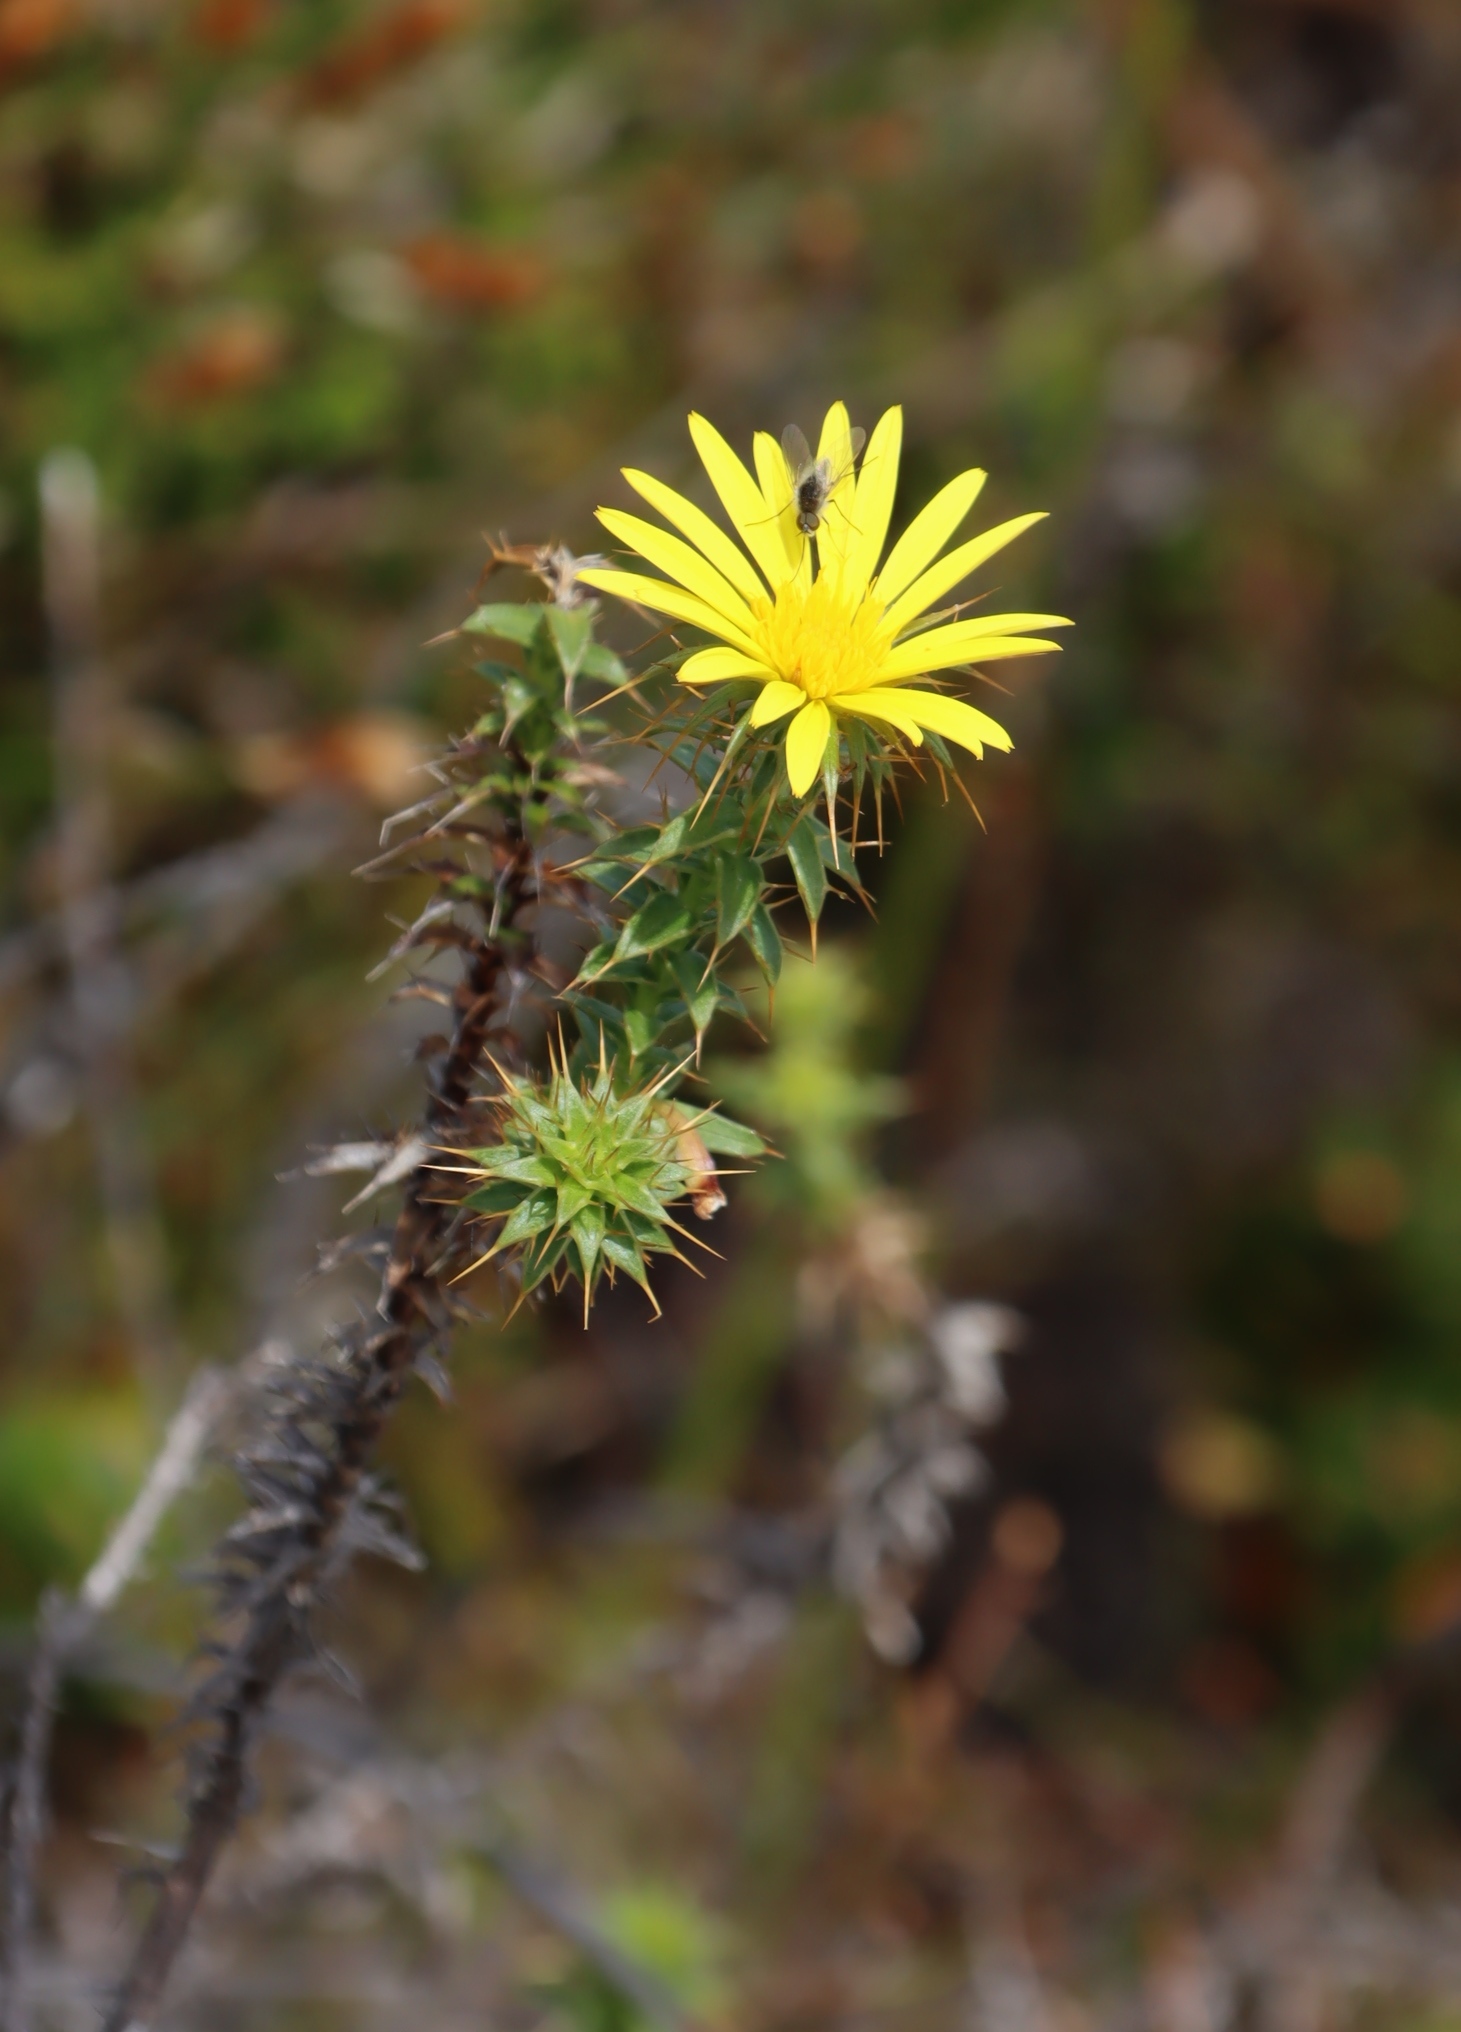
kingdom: Plantae
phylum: Tracheophyta
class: Magnoliopsida
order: Asterales
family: Asteraceae
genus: Cullumia
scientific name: Cullumia setosa
